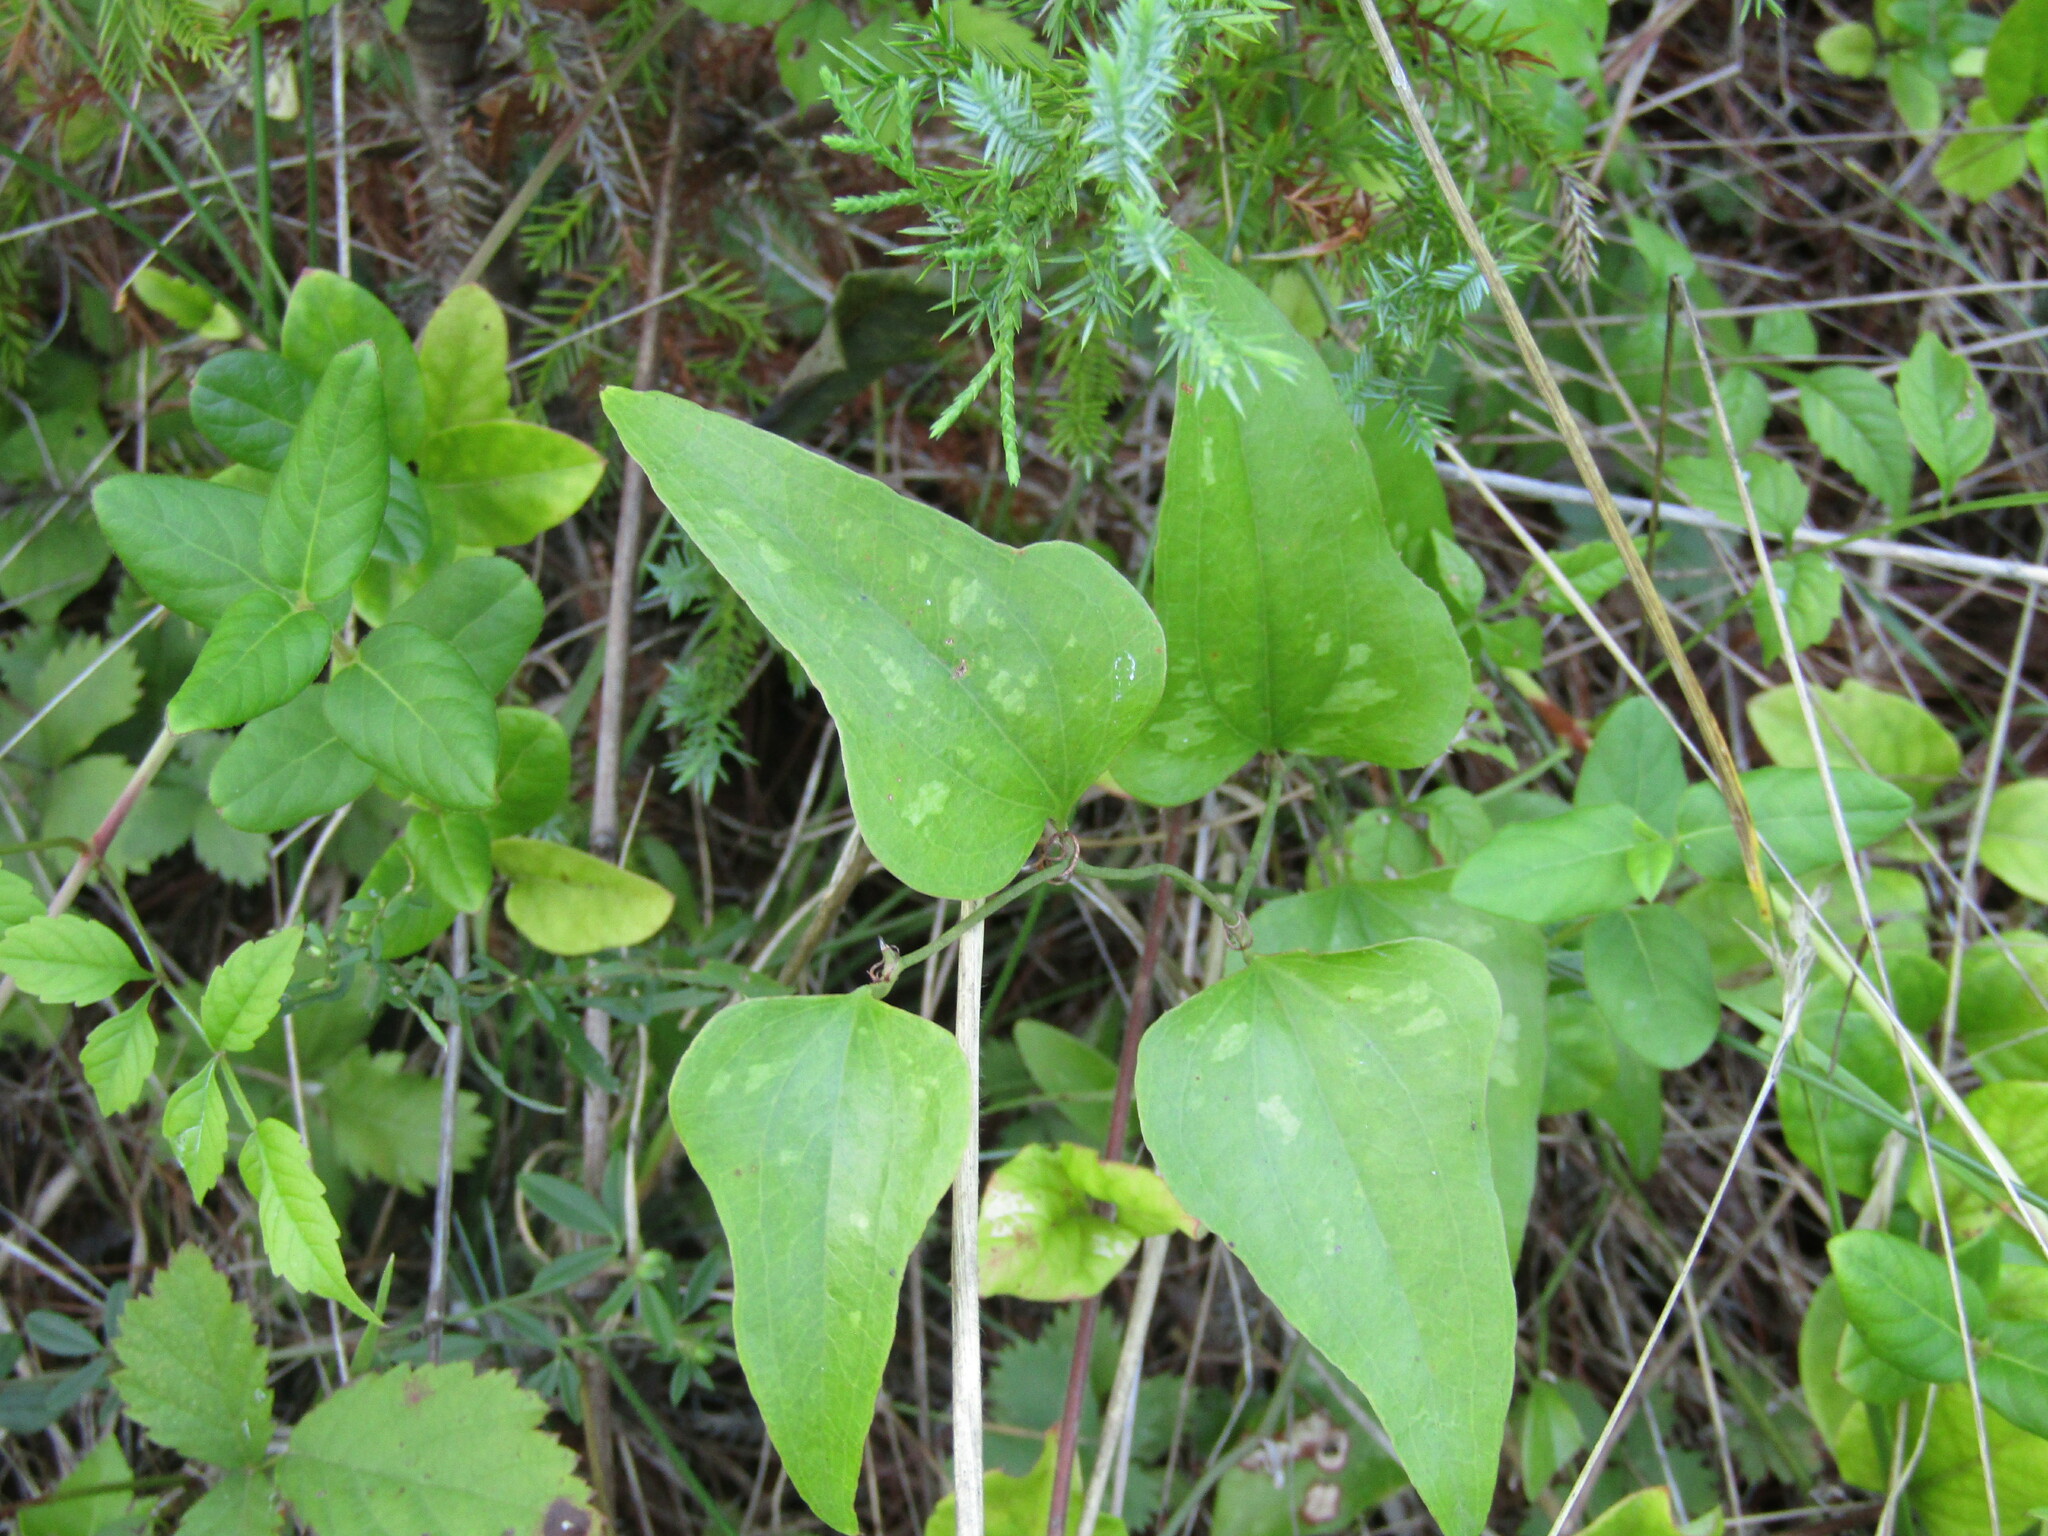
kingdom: Plantae
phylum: Tracheophyta
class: Liliopsida
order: Liliales
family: Smilacaceae
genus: Smilax
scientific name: Smilax bona-nox
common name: Catbrier
